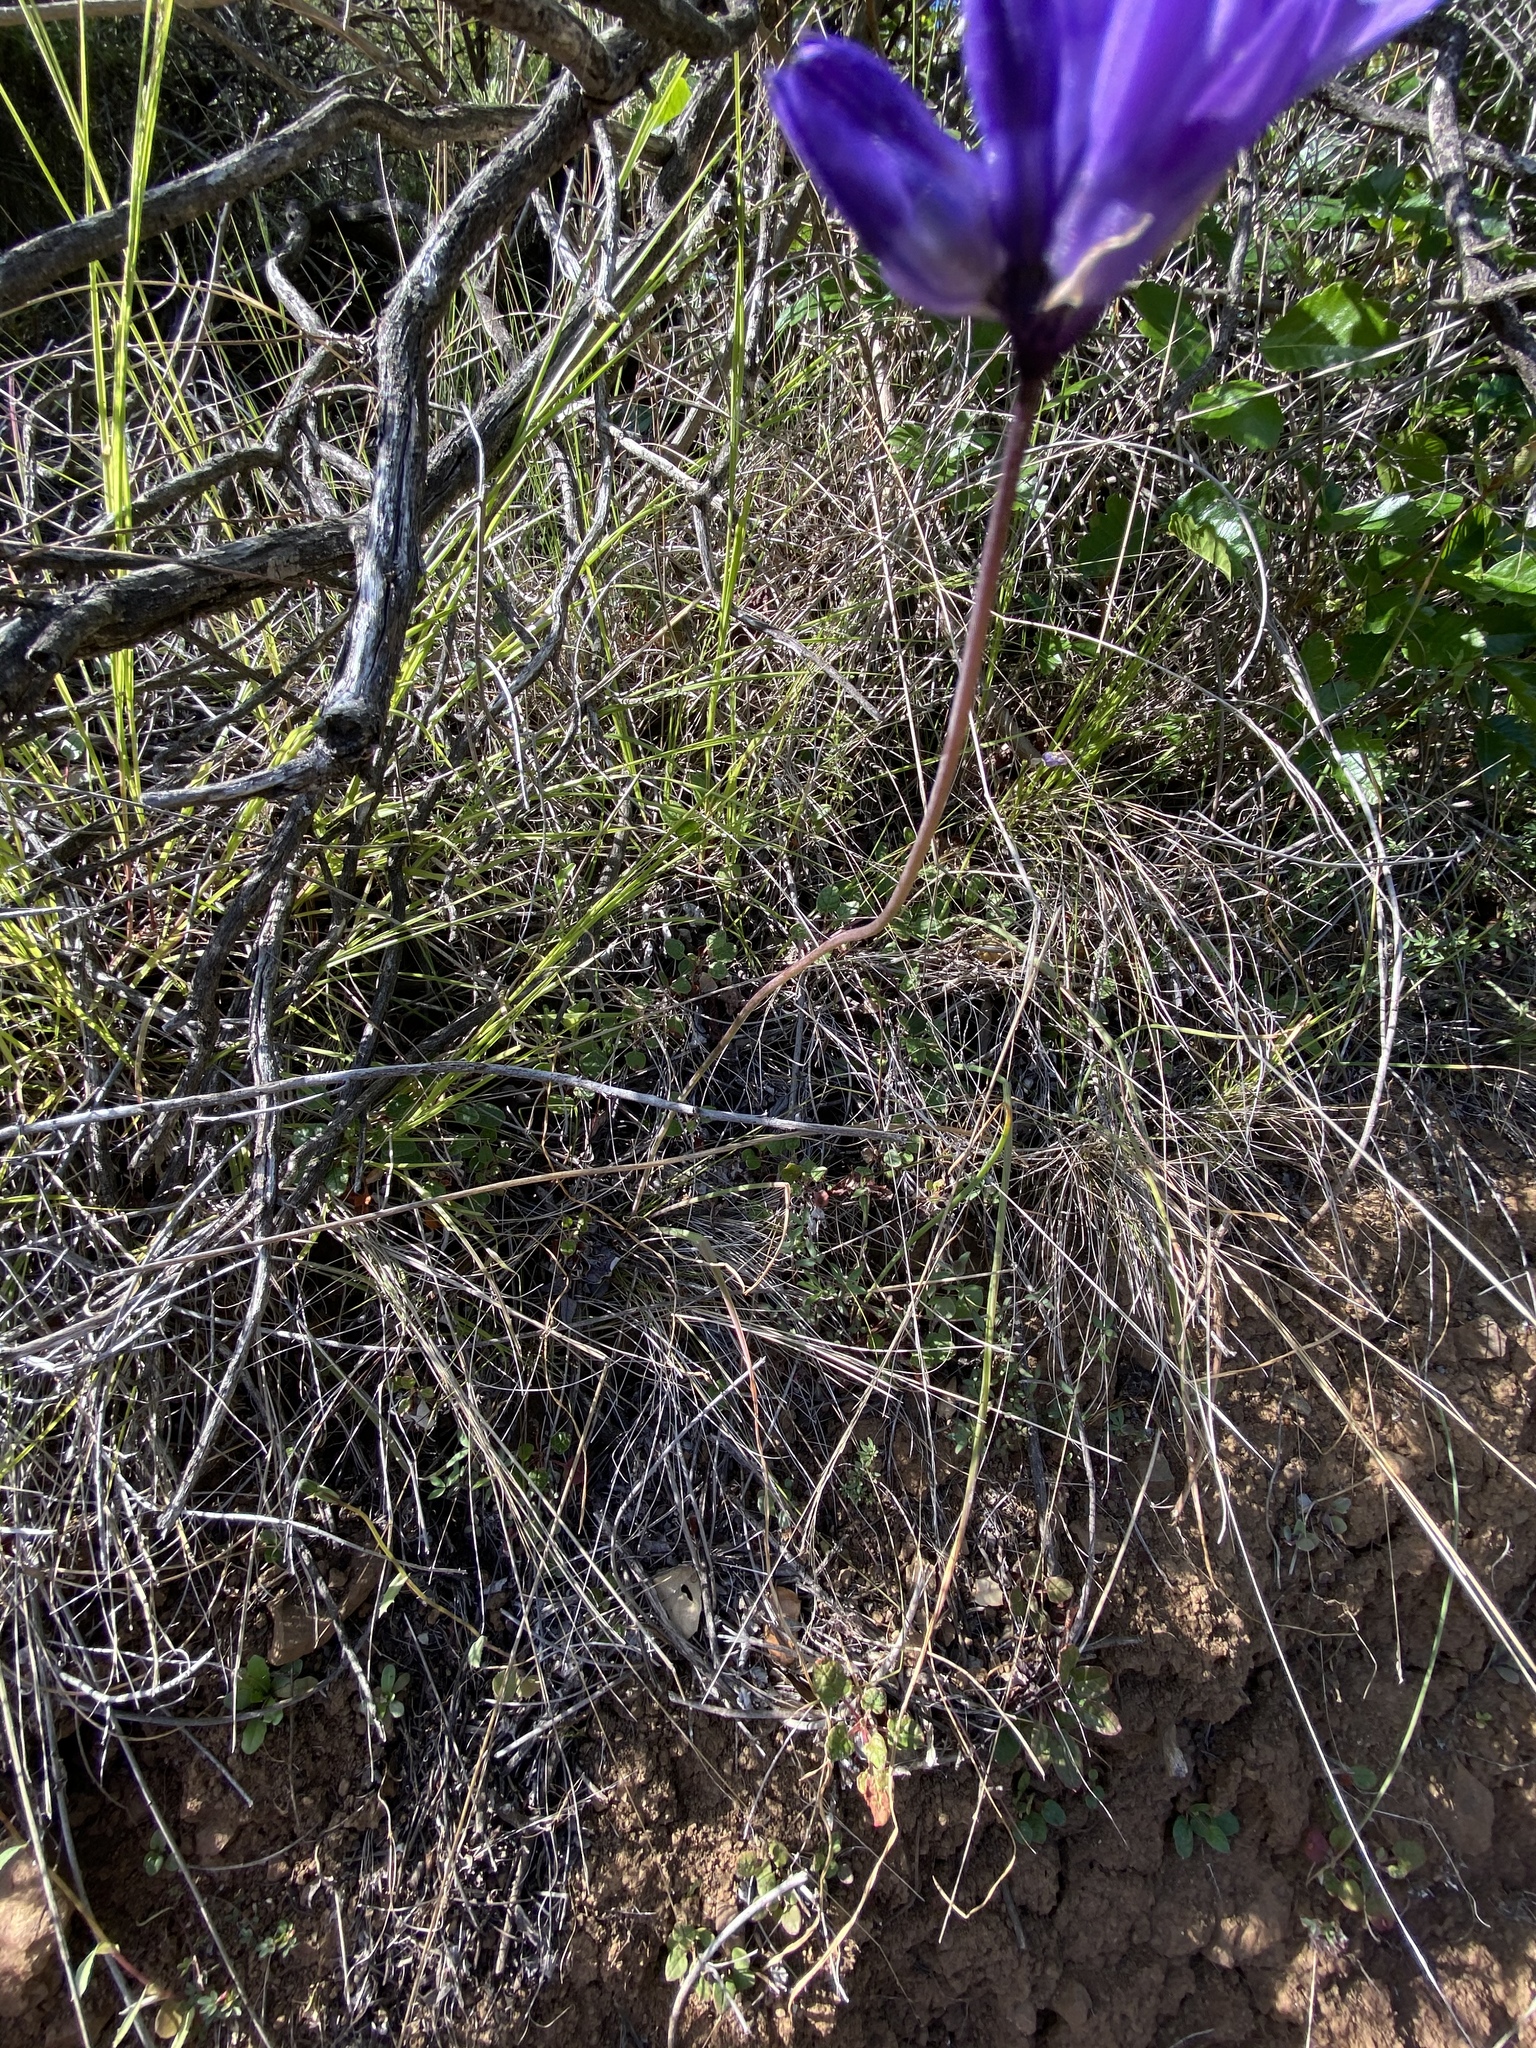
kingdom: Plantae
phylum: Tracheophyta
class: Liliopsida
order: Asparagales
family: Asparagaceae
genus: Dipterostemon
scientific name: Dipterostemon capitatus
